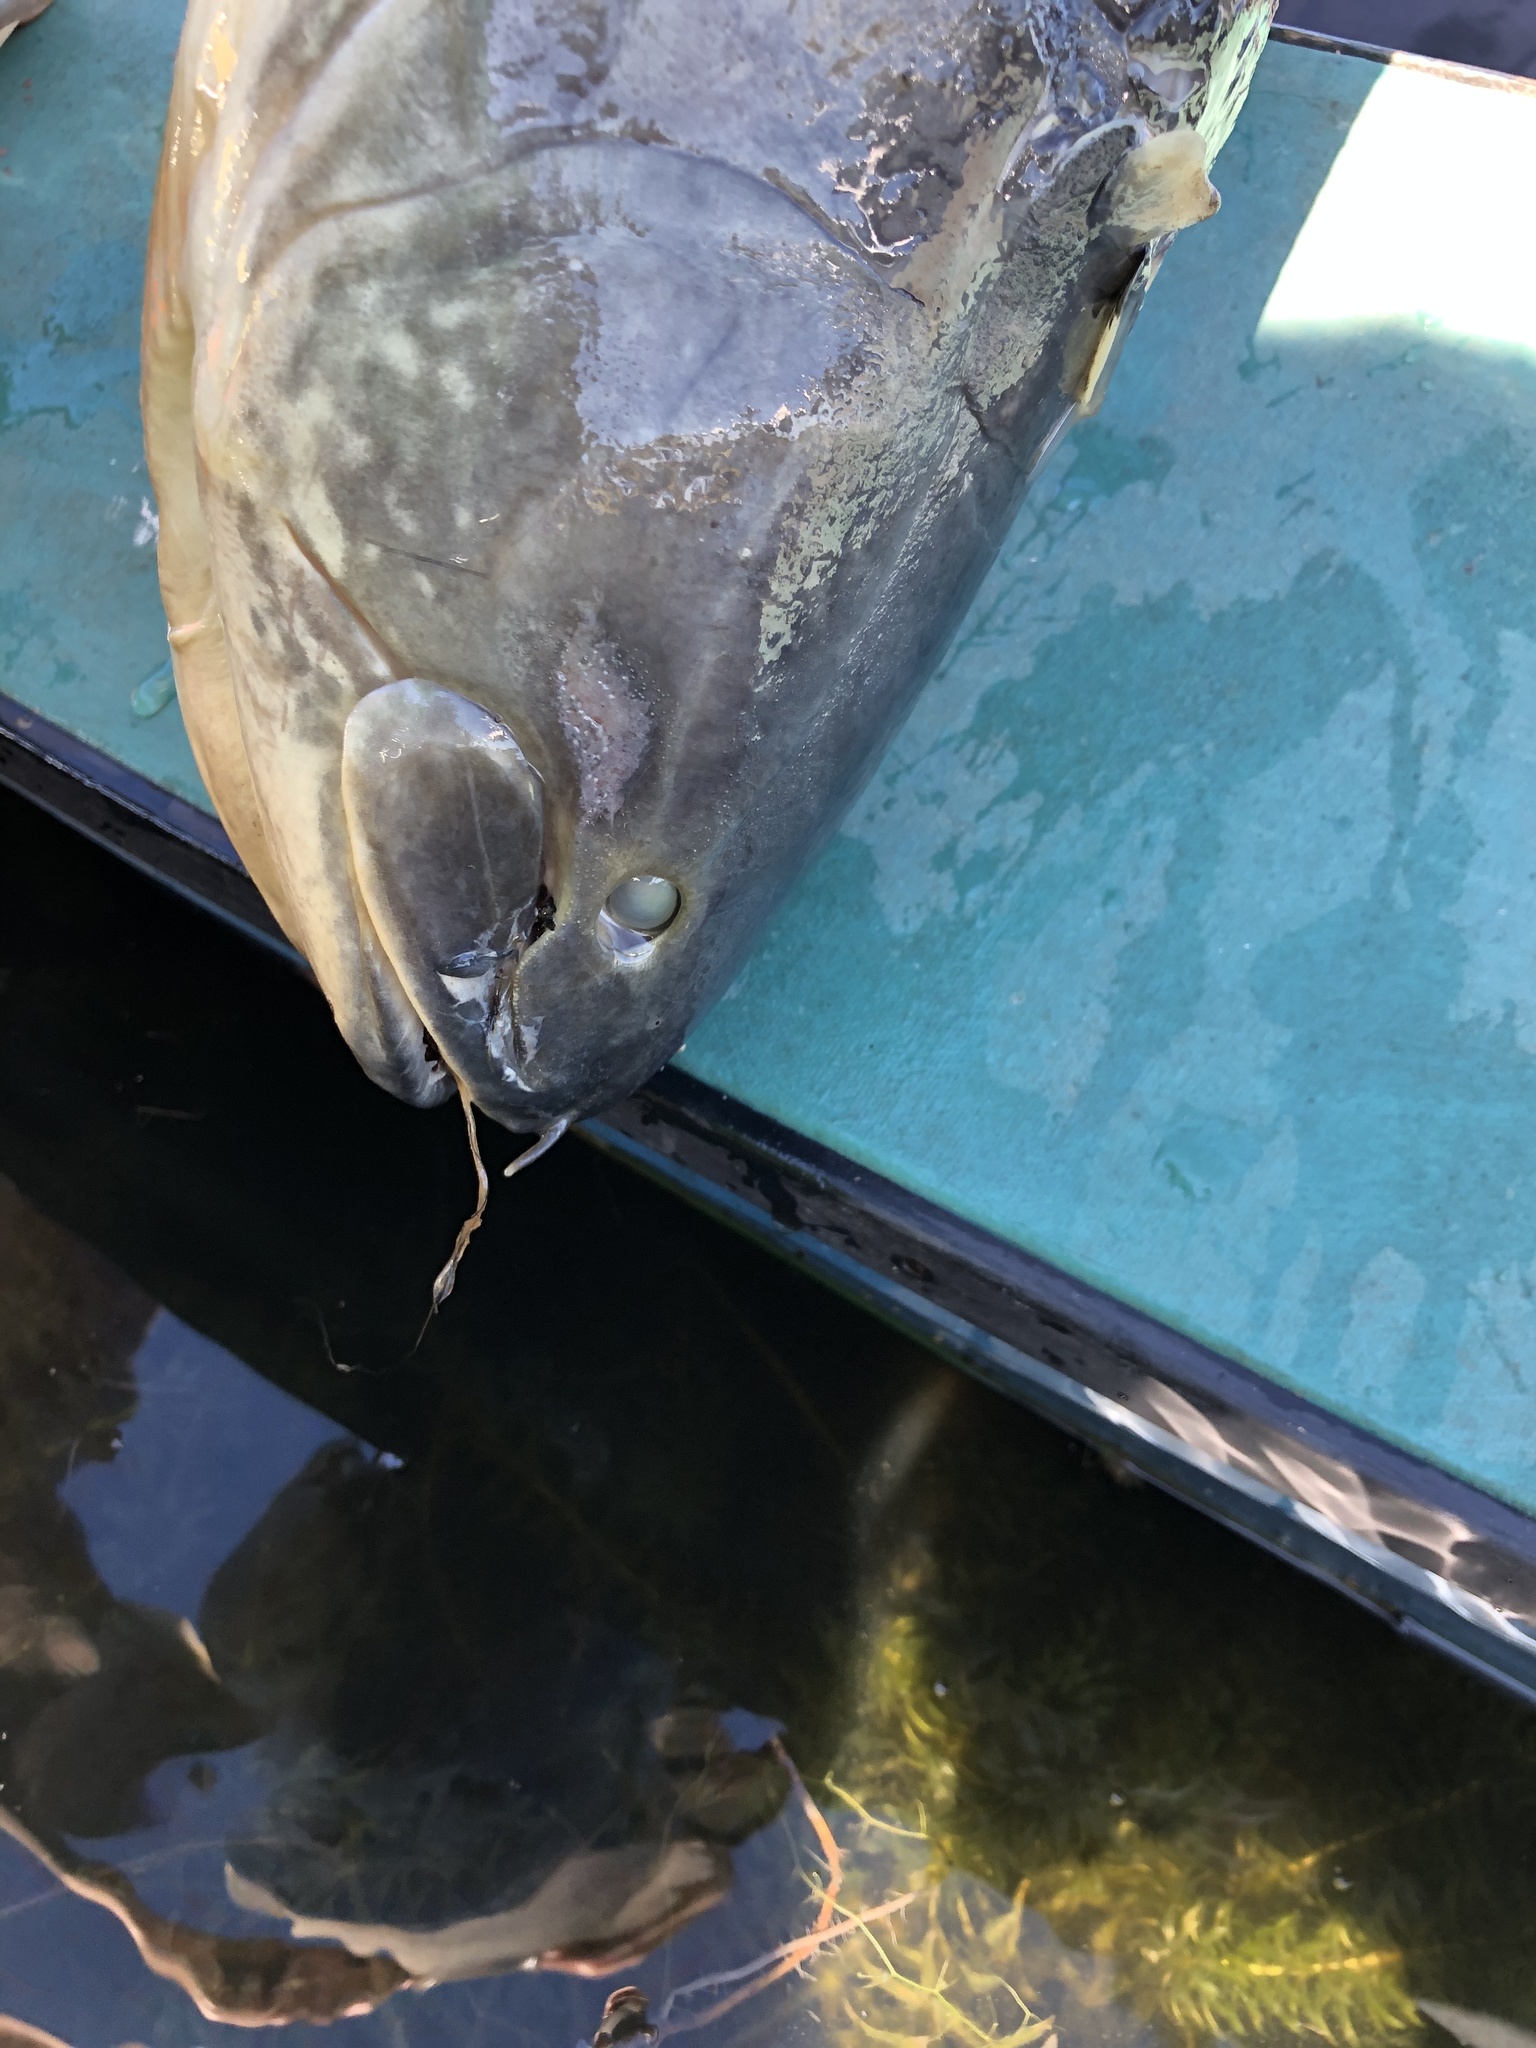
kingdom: Animalia
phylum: Chordata
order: Amiiformes
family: Amiidae
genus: Amia
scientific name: Amia calva
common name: Bowfin
